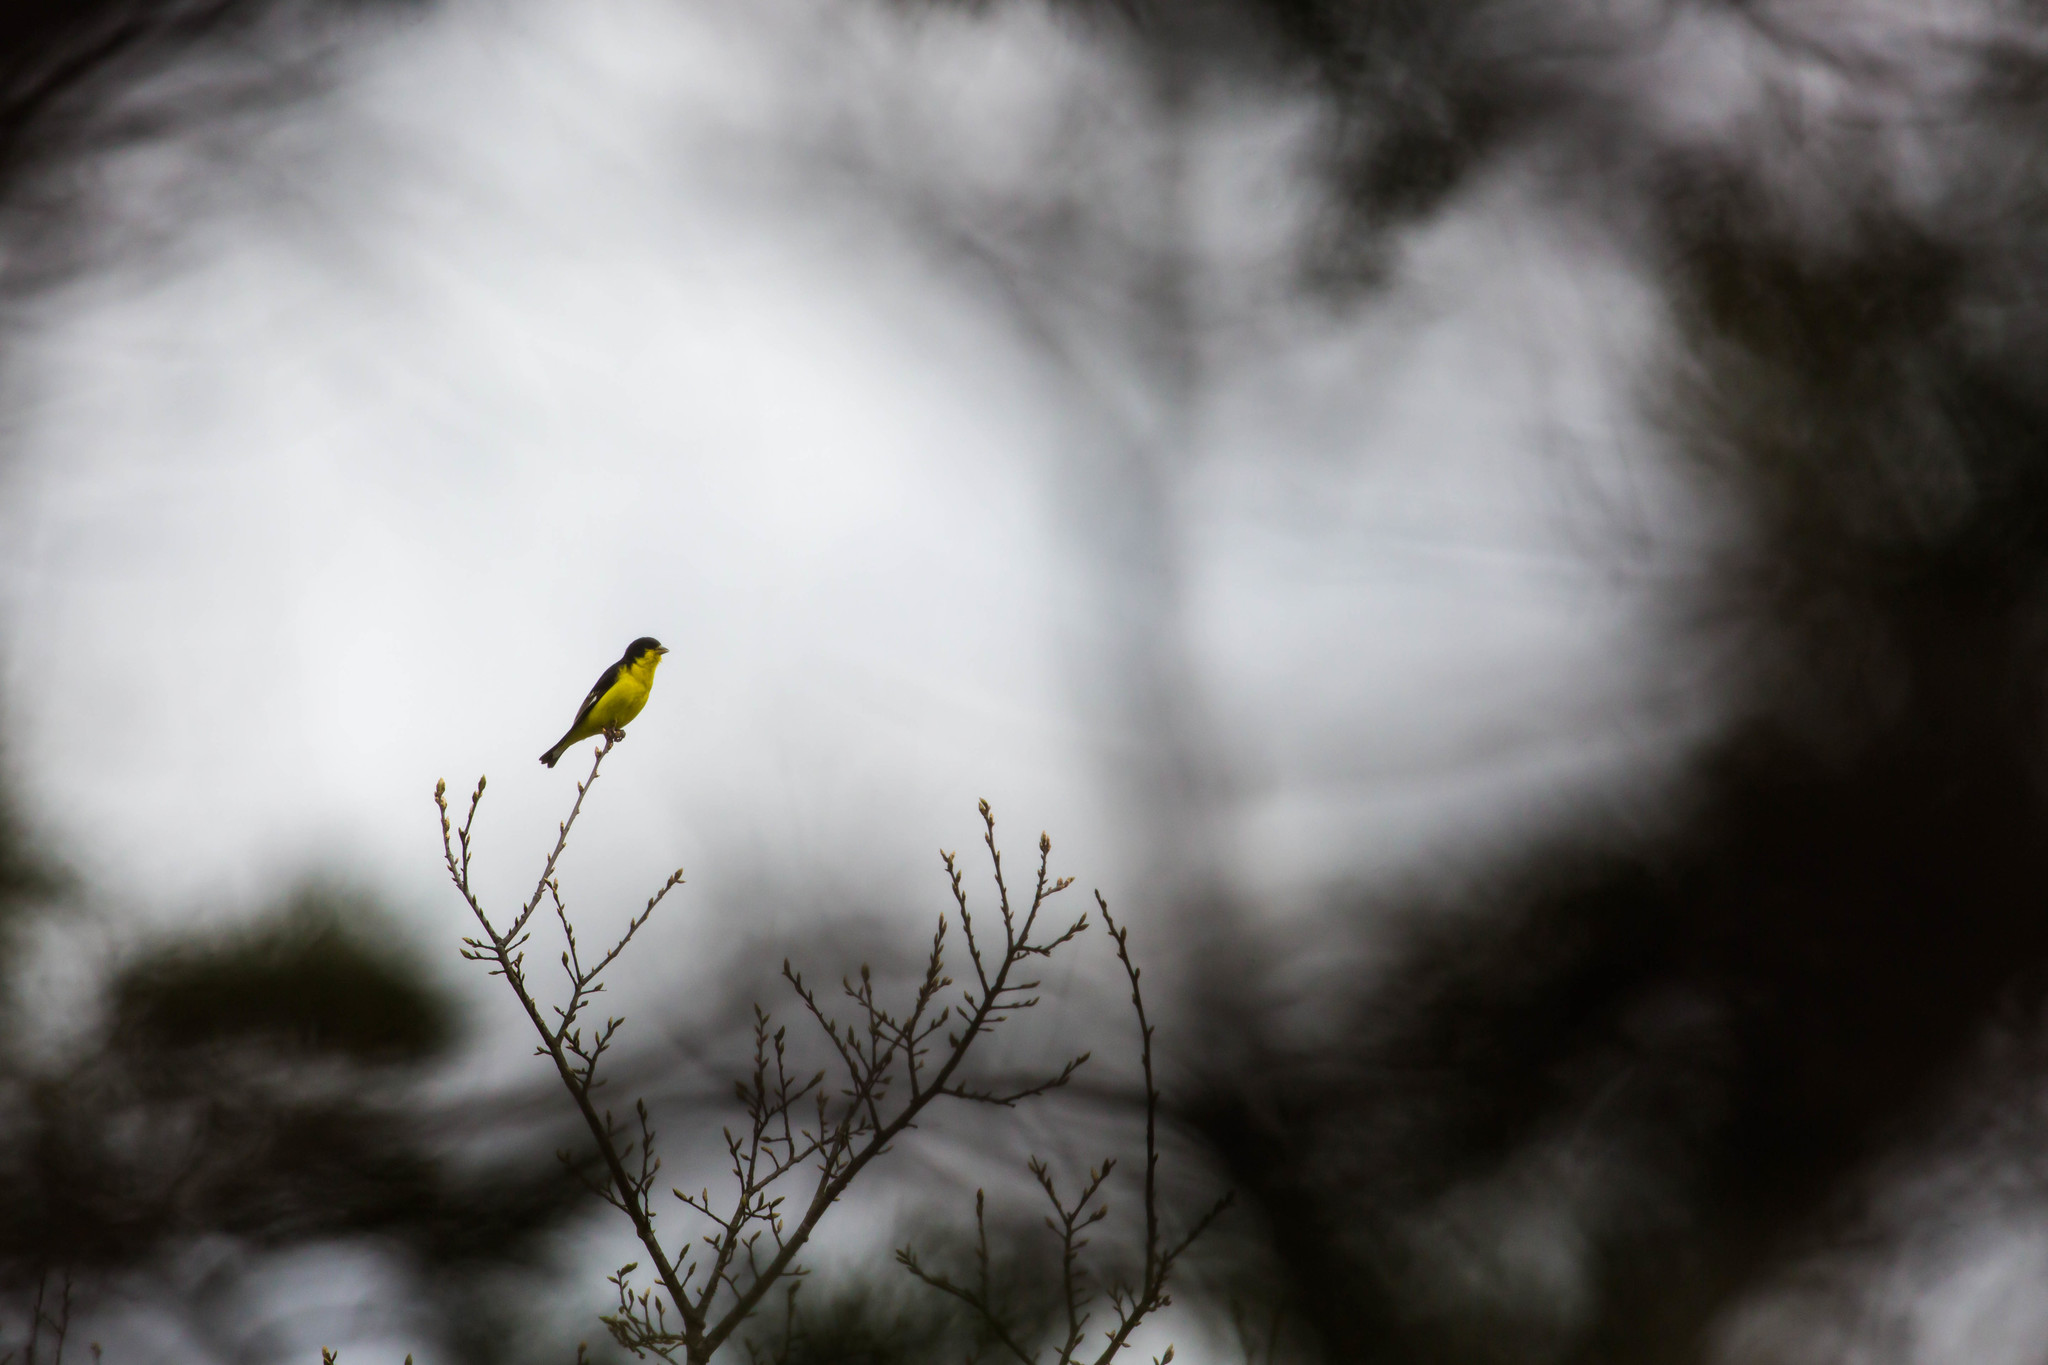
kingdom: Animalia
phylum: Chordata
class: Aves
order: Passeriformes
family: Fringillidae
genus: Spinus
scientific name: Spinus psaltria
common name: Lesser goldfinch
